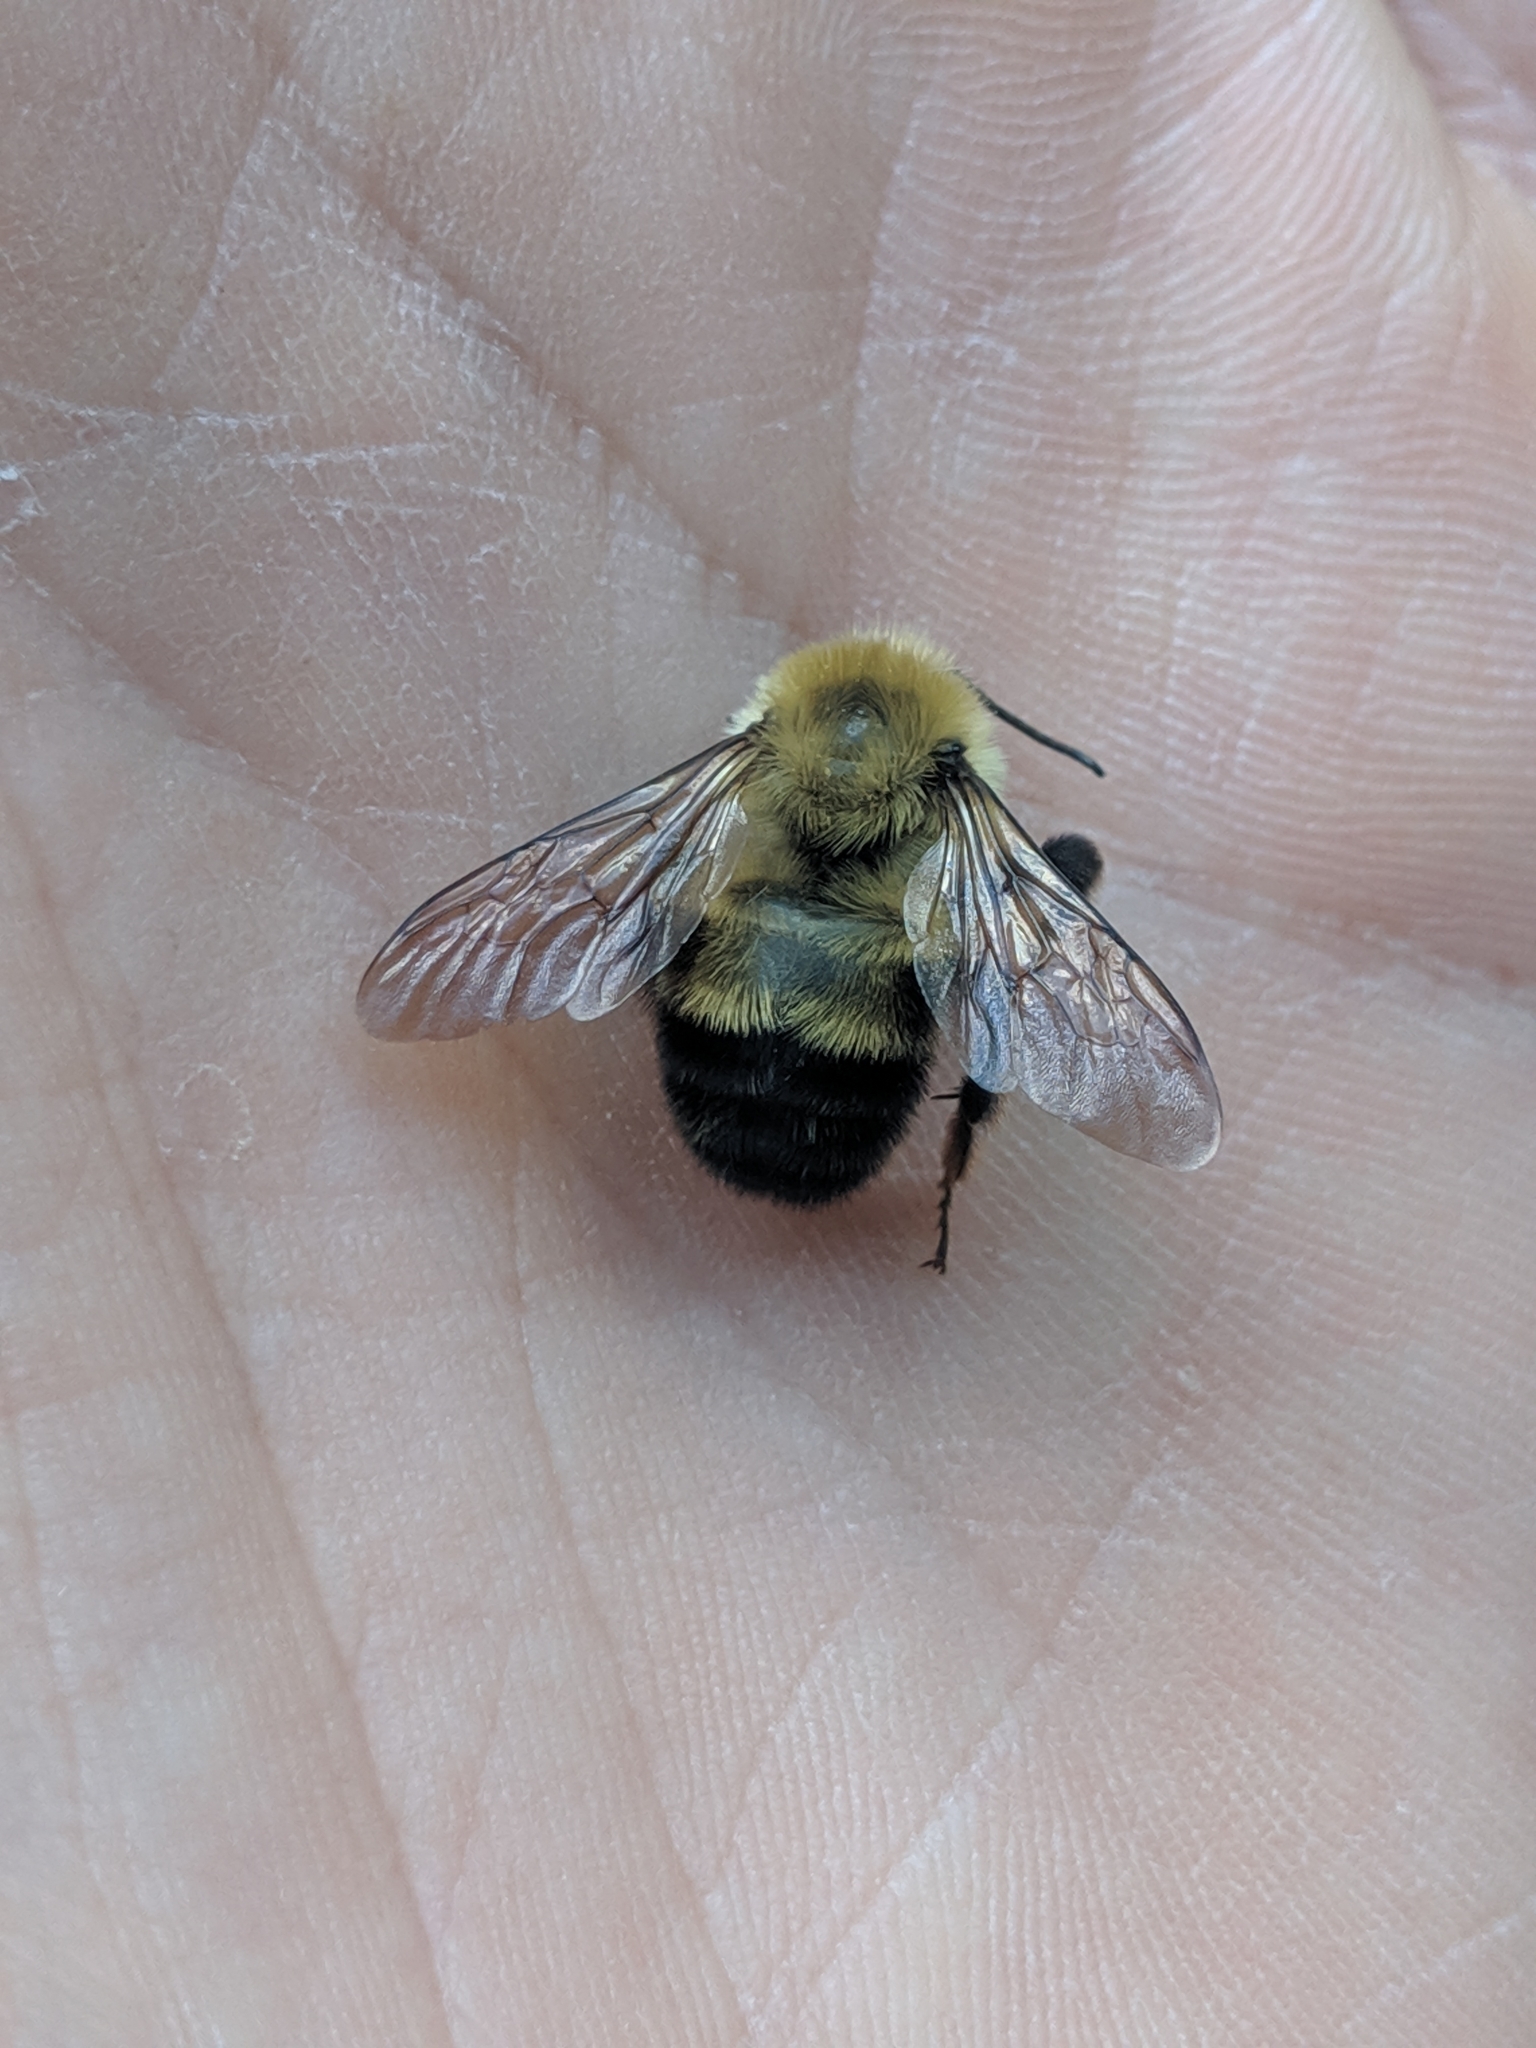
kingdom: Animalia
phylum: Arthropoda
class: Insecta
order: Hymenoptera
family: Apidae
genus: Bombus
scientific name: Bombus bimaculatus
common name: Two-spotted bumble bee
